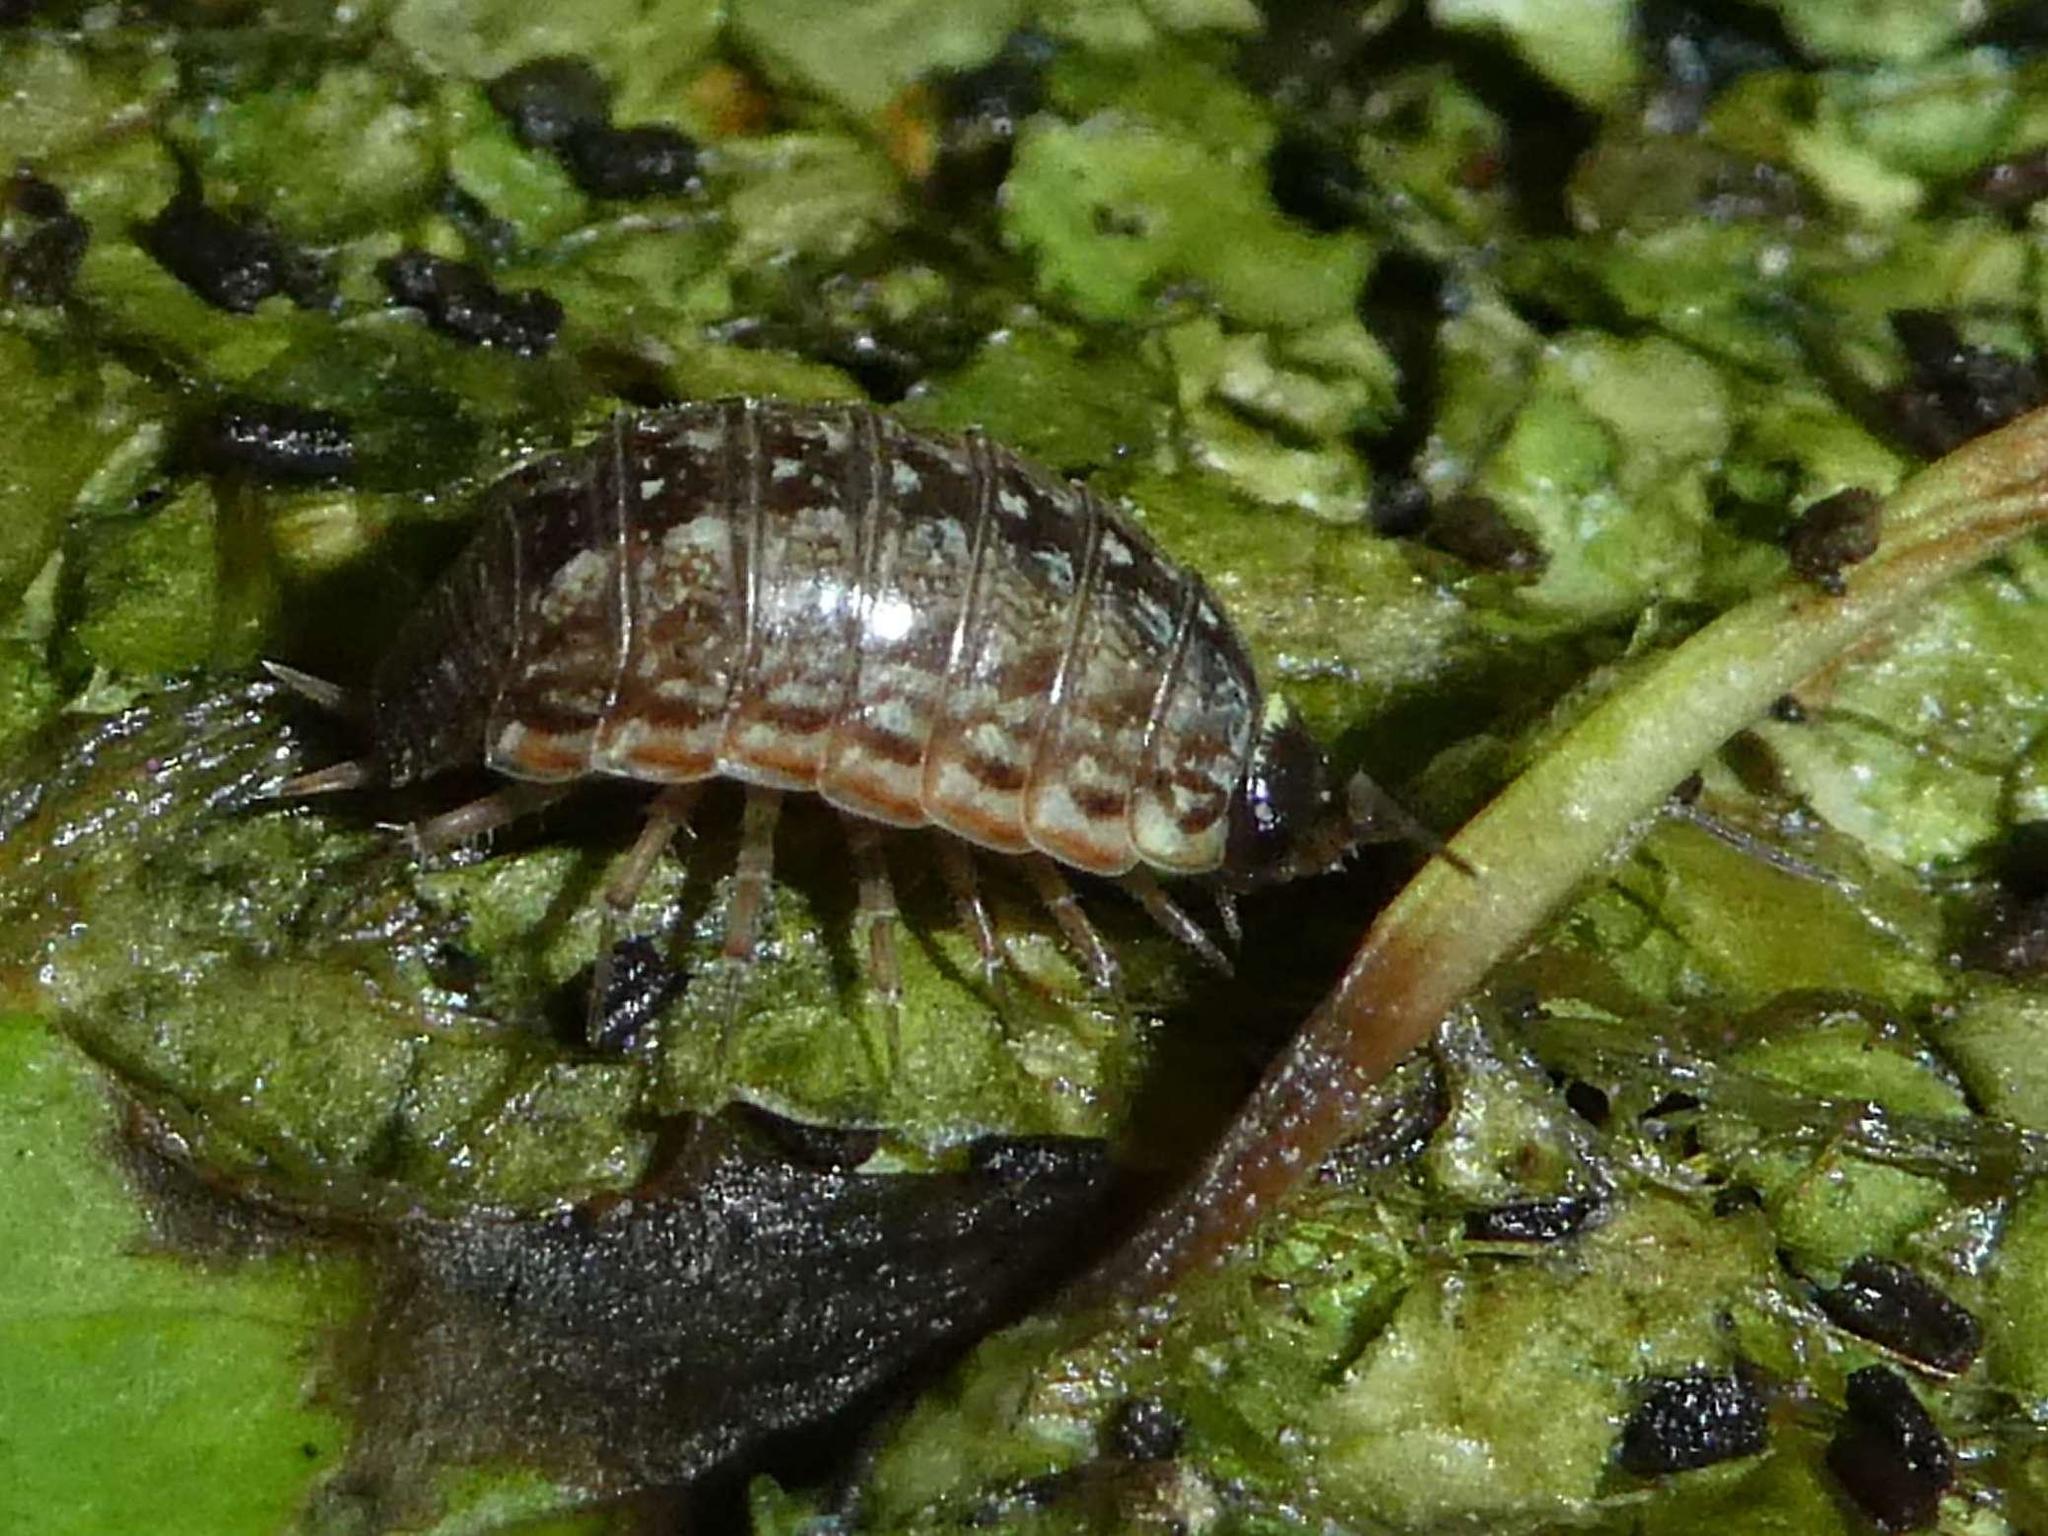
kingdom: Animalia
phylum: Arthropoda
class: Malacostraca
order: Isopoda
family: Philosciidae
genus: Philoscia
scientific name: Philoscia muscorum
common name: Common striped woodlouse
